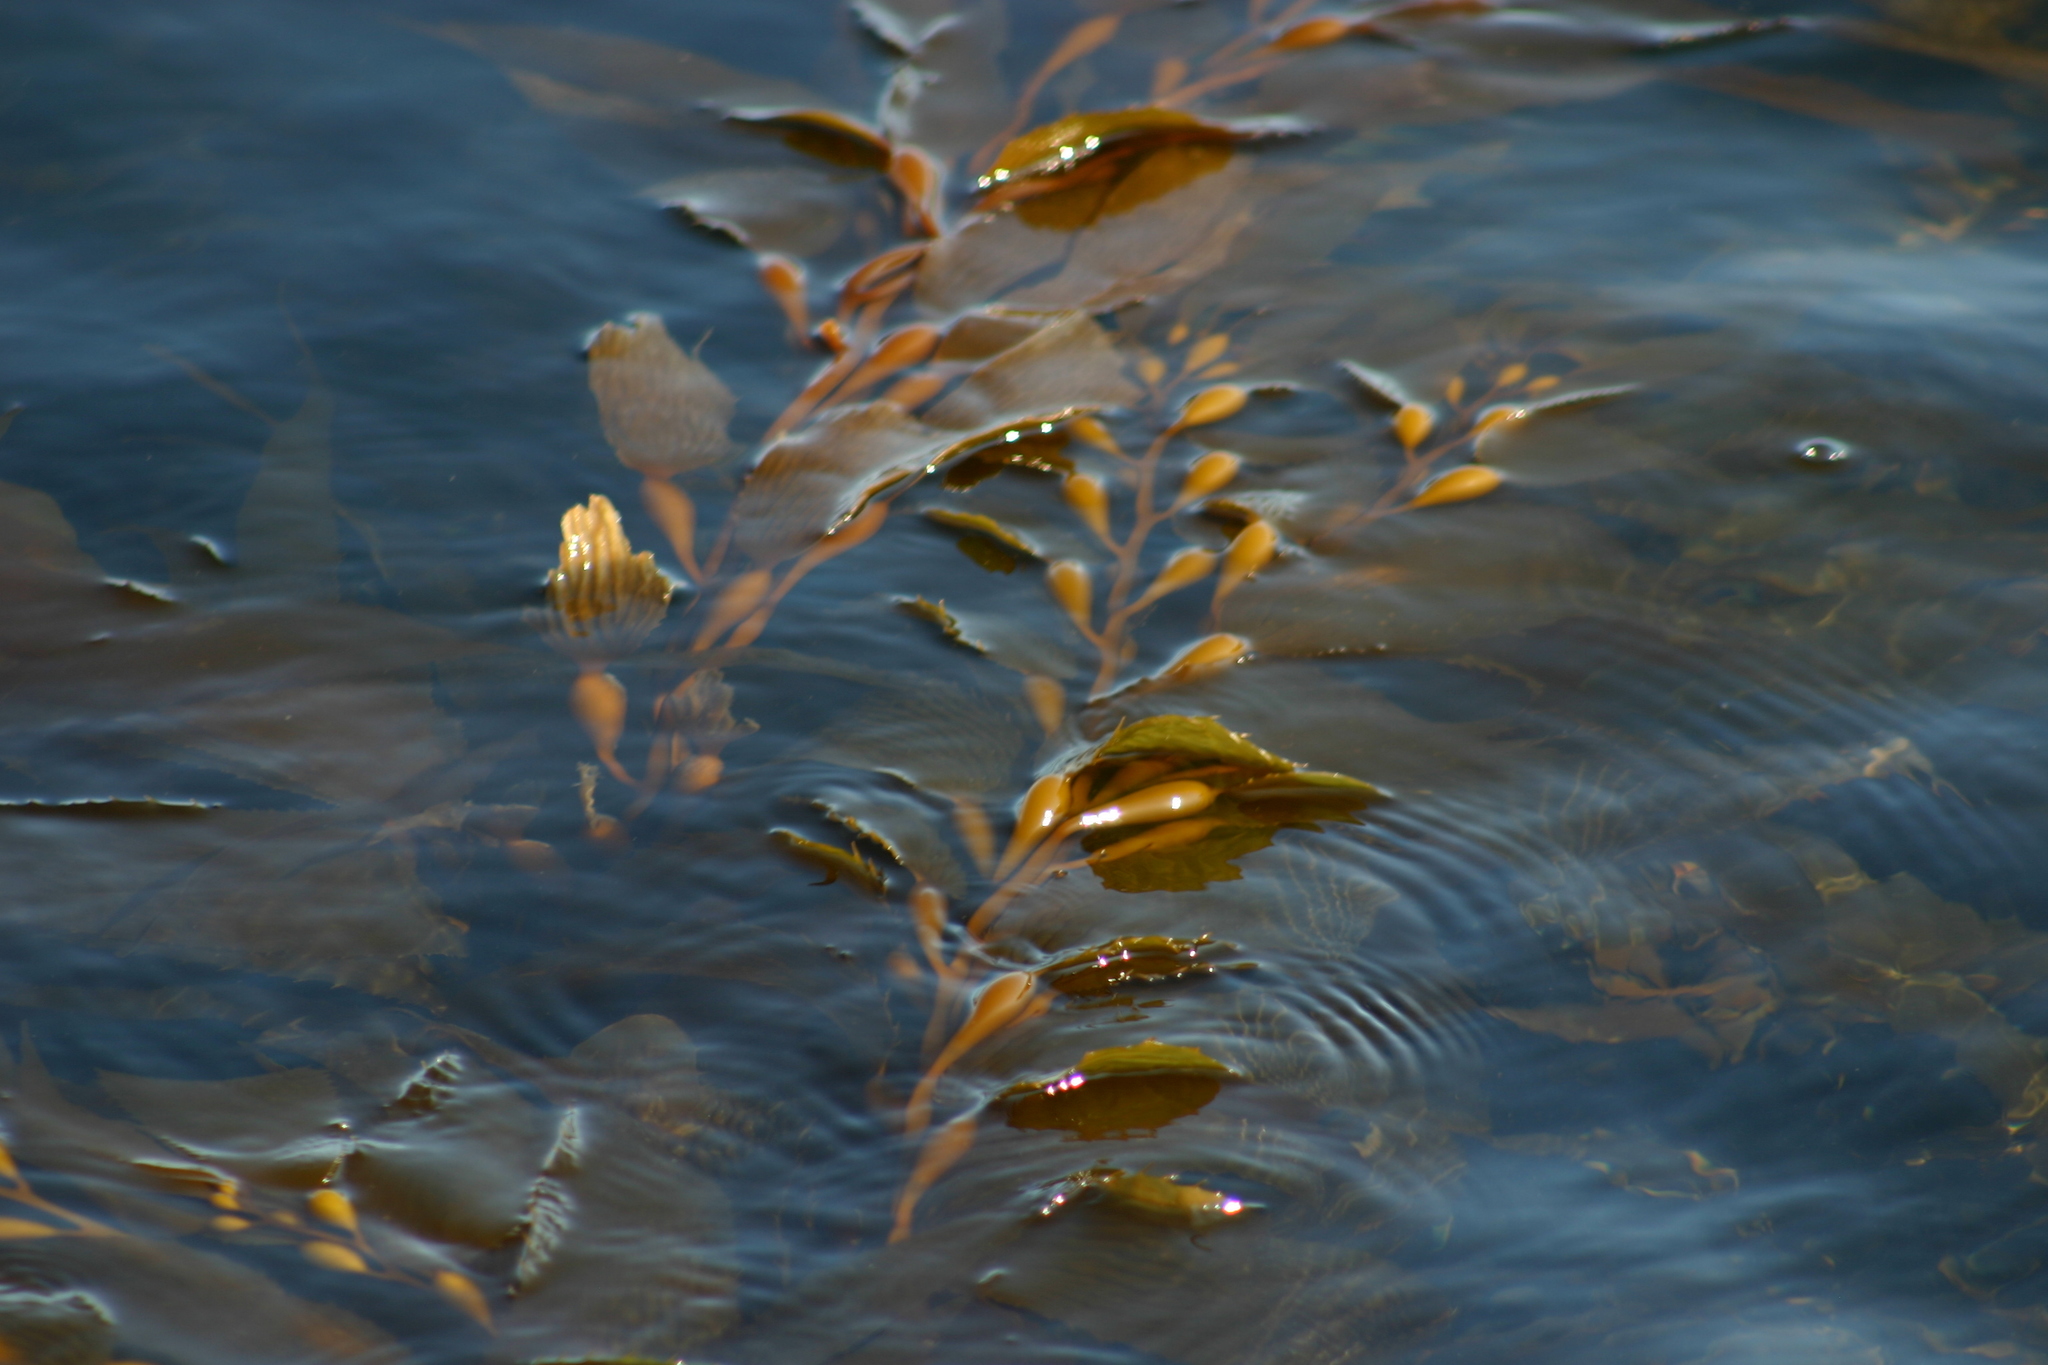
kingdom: Chromista
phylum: Ochrophyta
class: Phaeophyceae
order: Laminariales
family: Laminariaceae
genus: Macrocystis
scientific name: Macrocystis pyrifera
